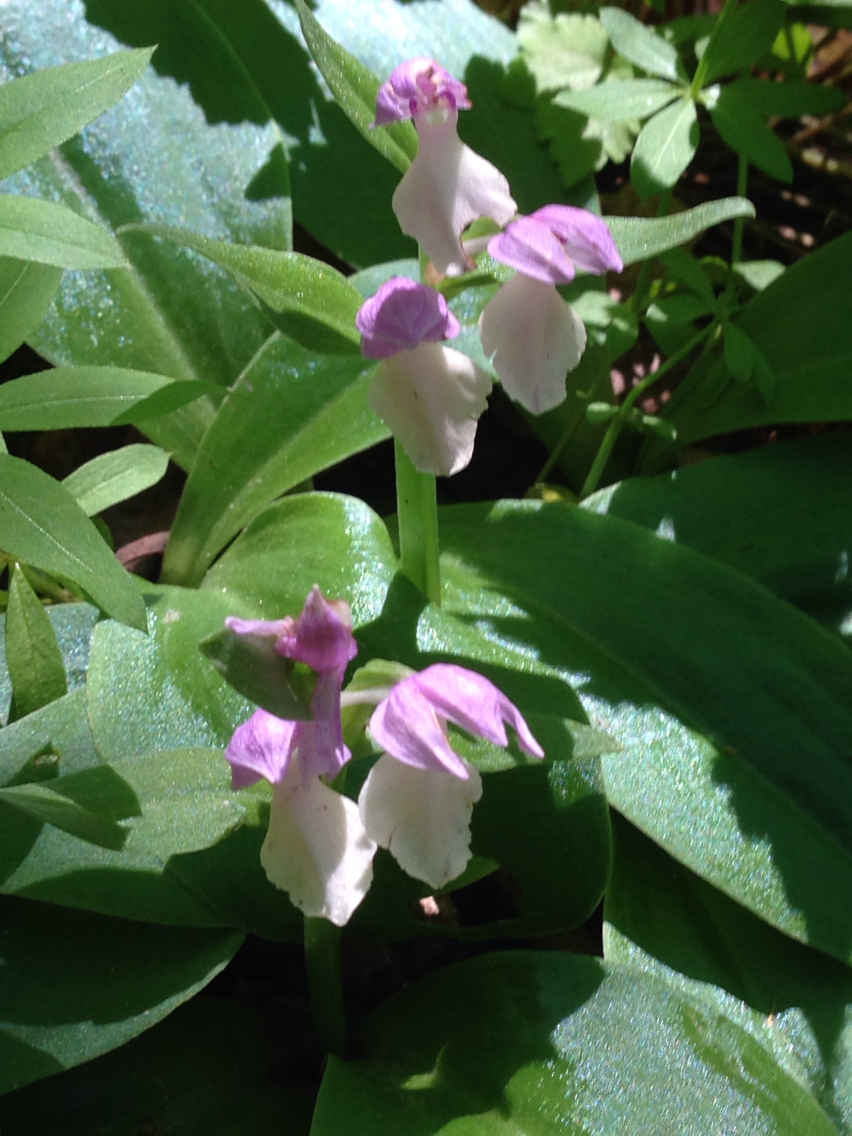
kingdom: Plantae
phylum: Tracheophyta
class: Liliopsida
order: Asparagales
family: Orchidaceae
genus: Galearis
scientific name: Galearis spectabilis
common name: Purple-hooded orchis
